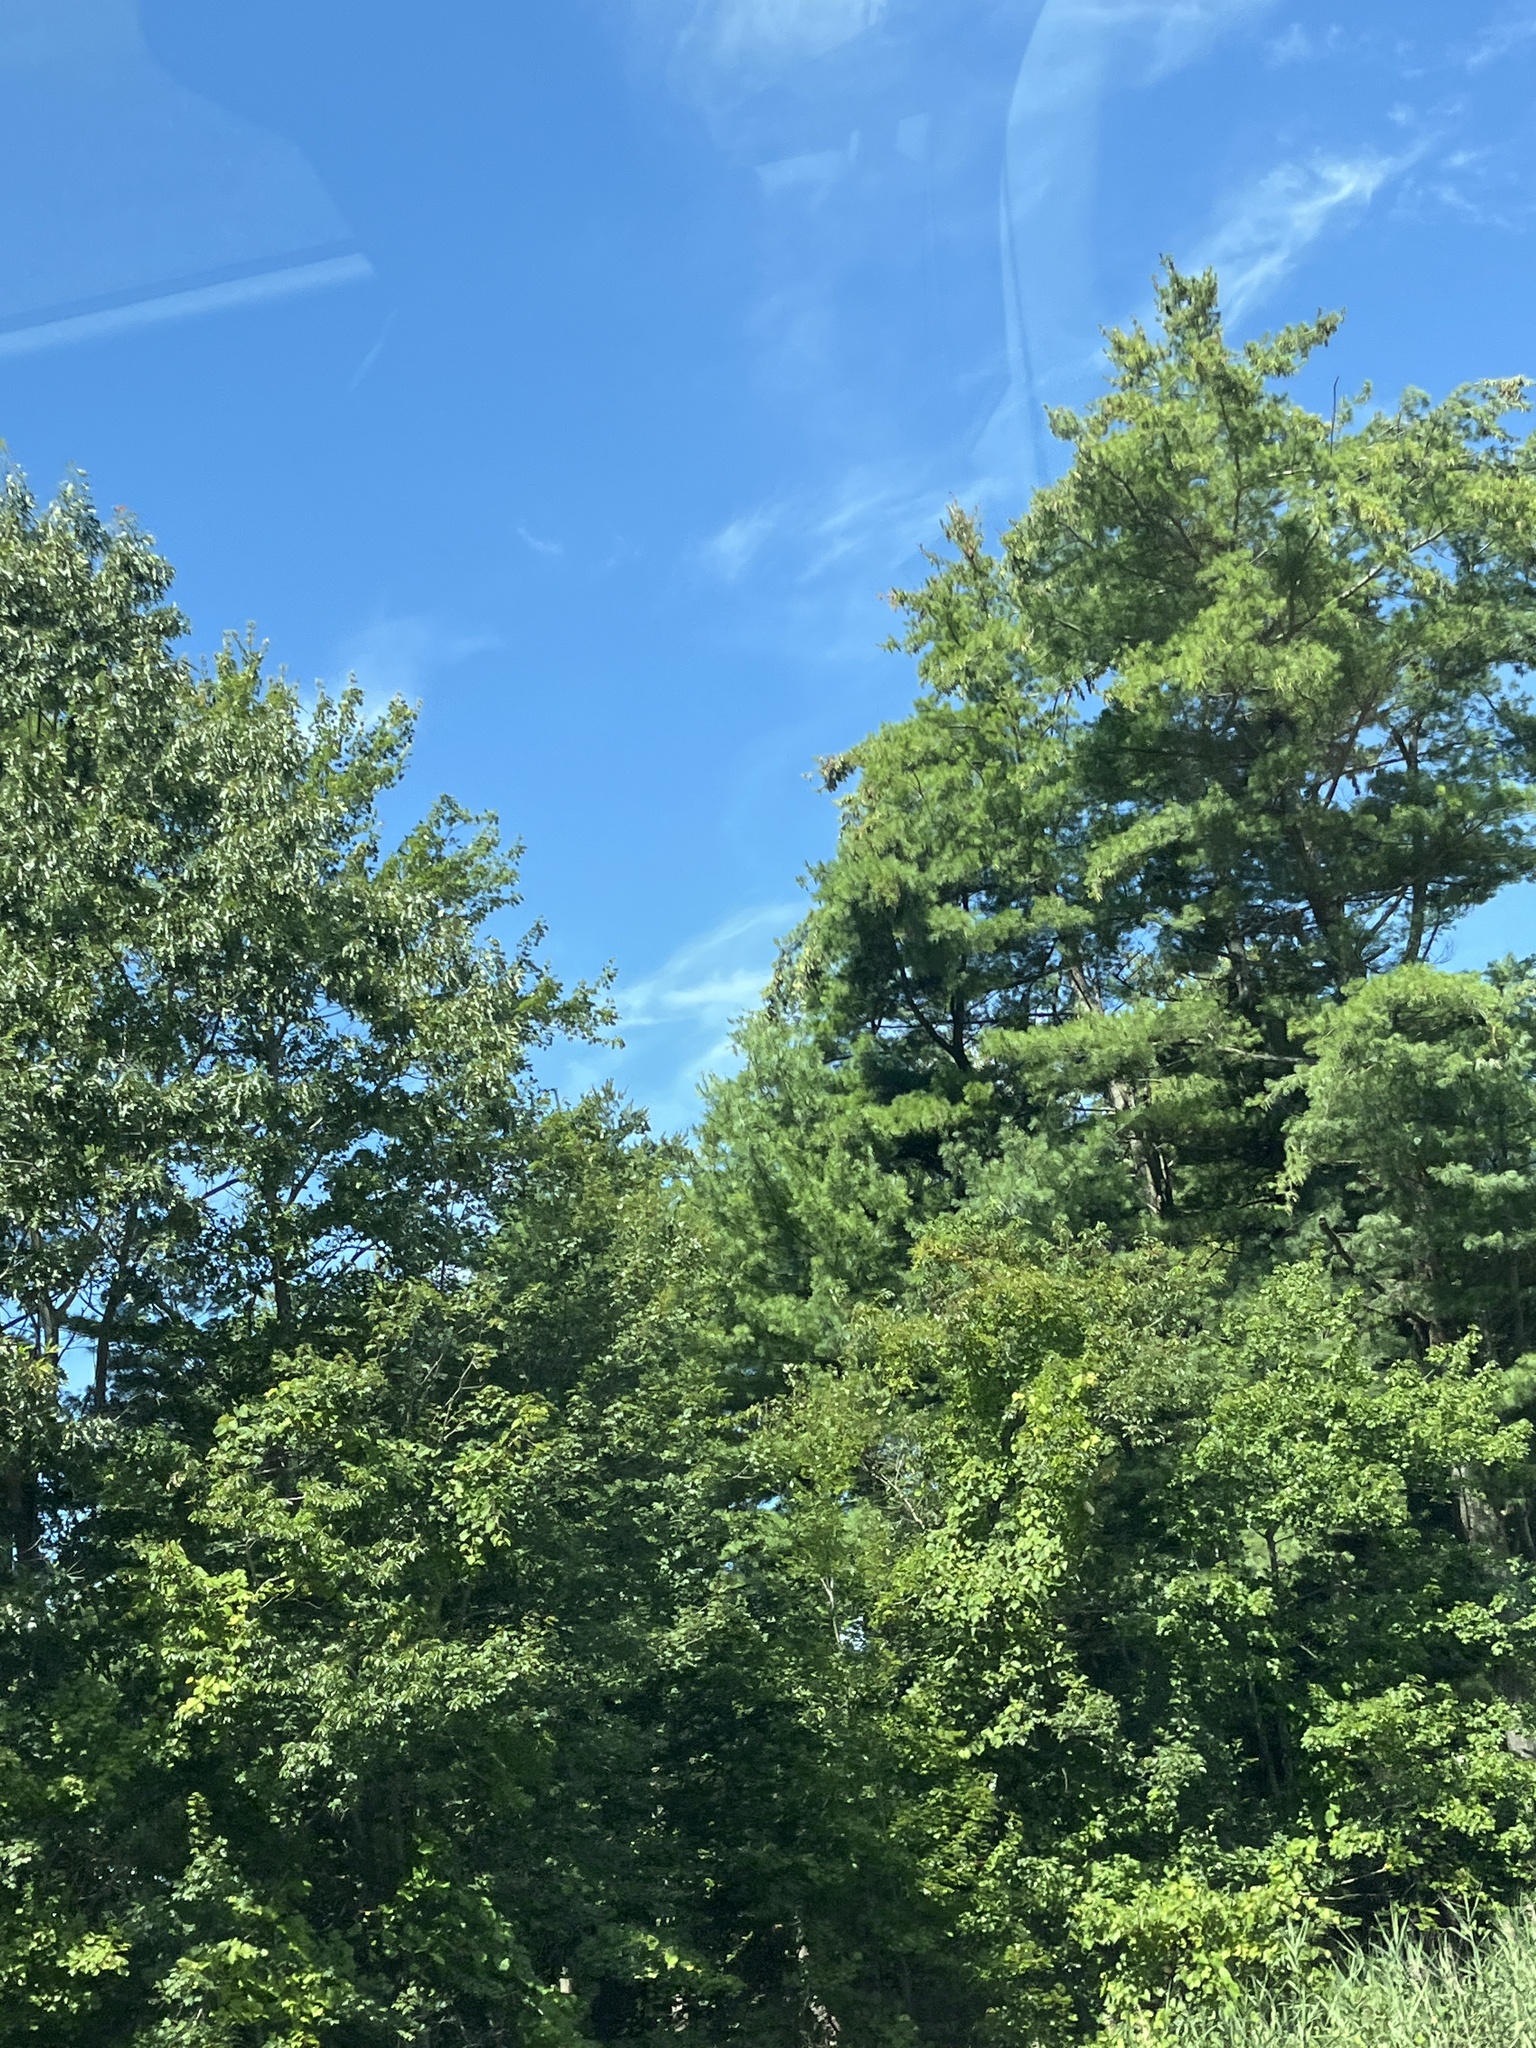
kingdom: Plantae
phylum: Tracheophyta
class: Pinopsida
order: Pinales
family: Pinaceae
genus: Pinus
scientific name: Pinus strobus
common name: Weymouth pine
